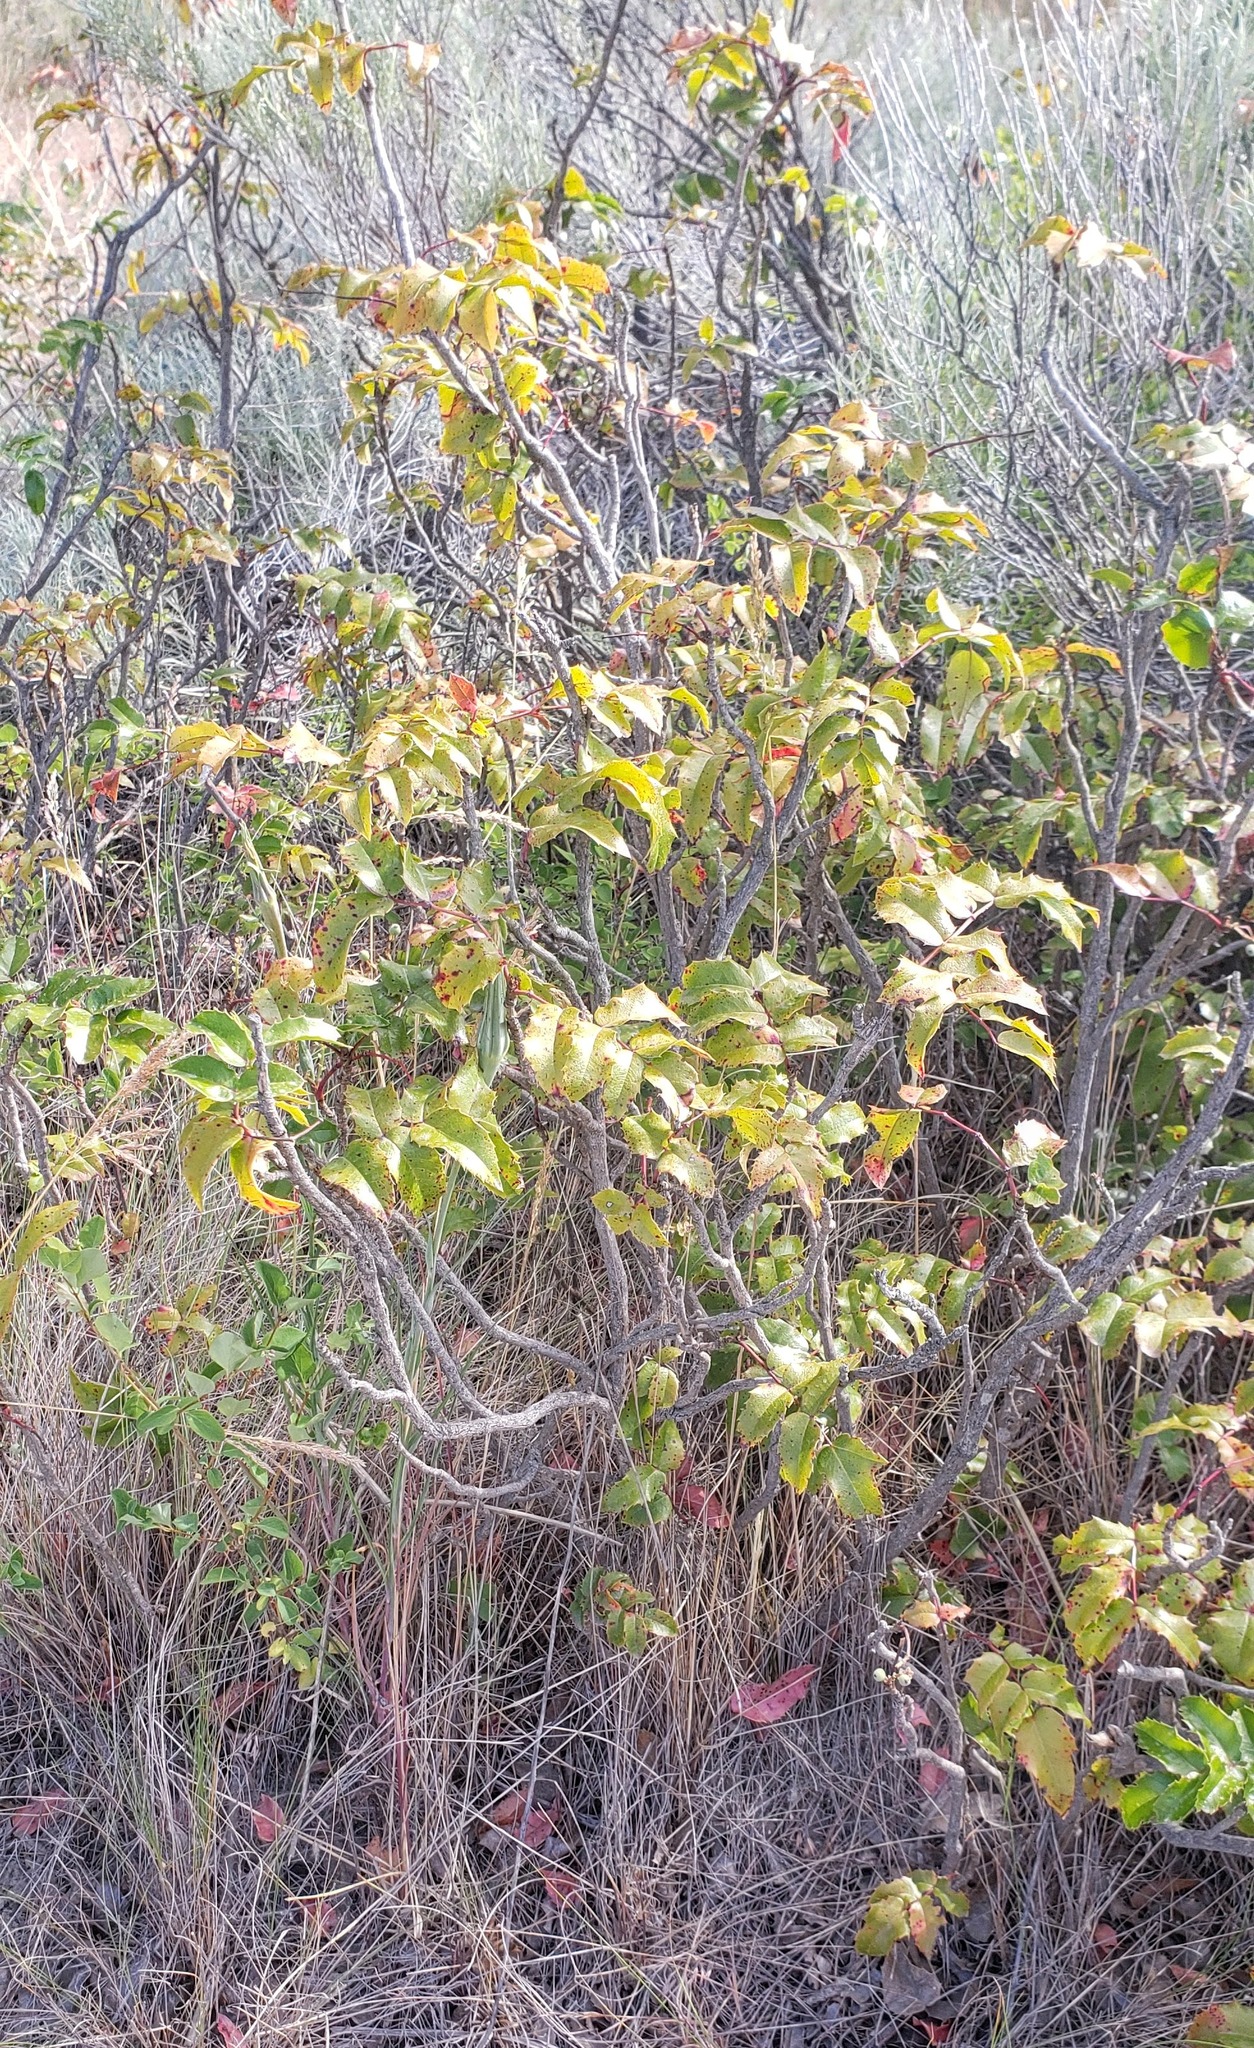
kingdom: Plantae
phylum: Tracheophyta
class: Magnoliopsida
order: Ranunculales
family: Berberidaceae
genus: Mahonia
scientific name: Mahonia aquifolium
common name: Oregon-grape
